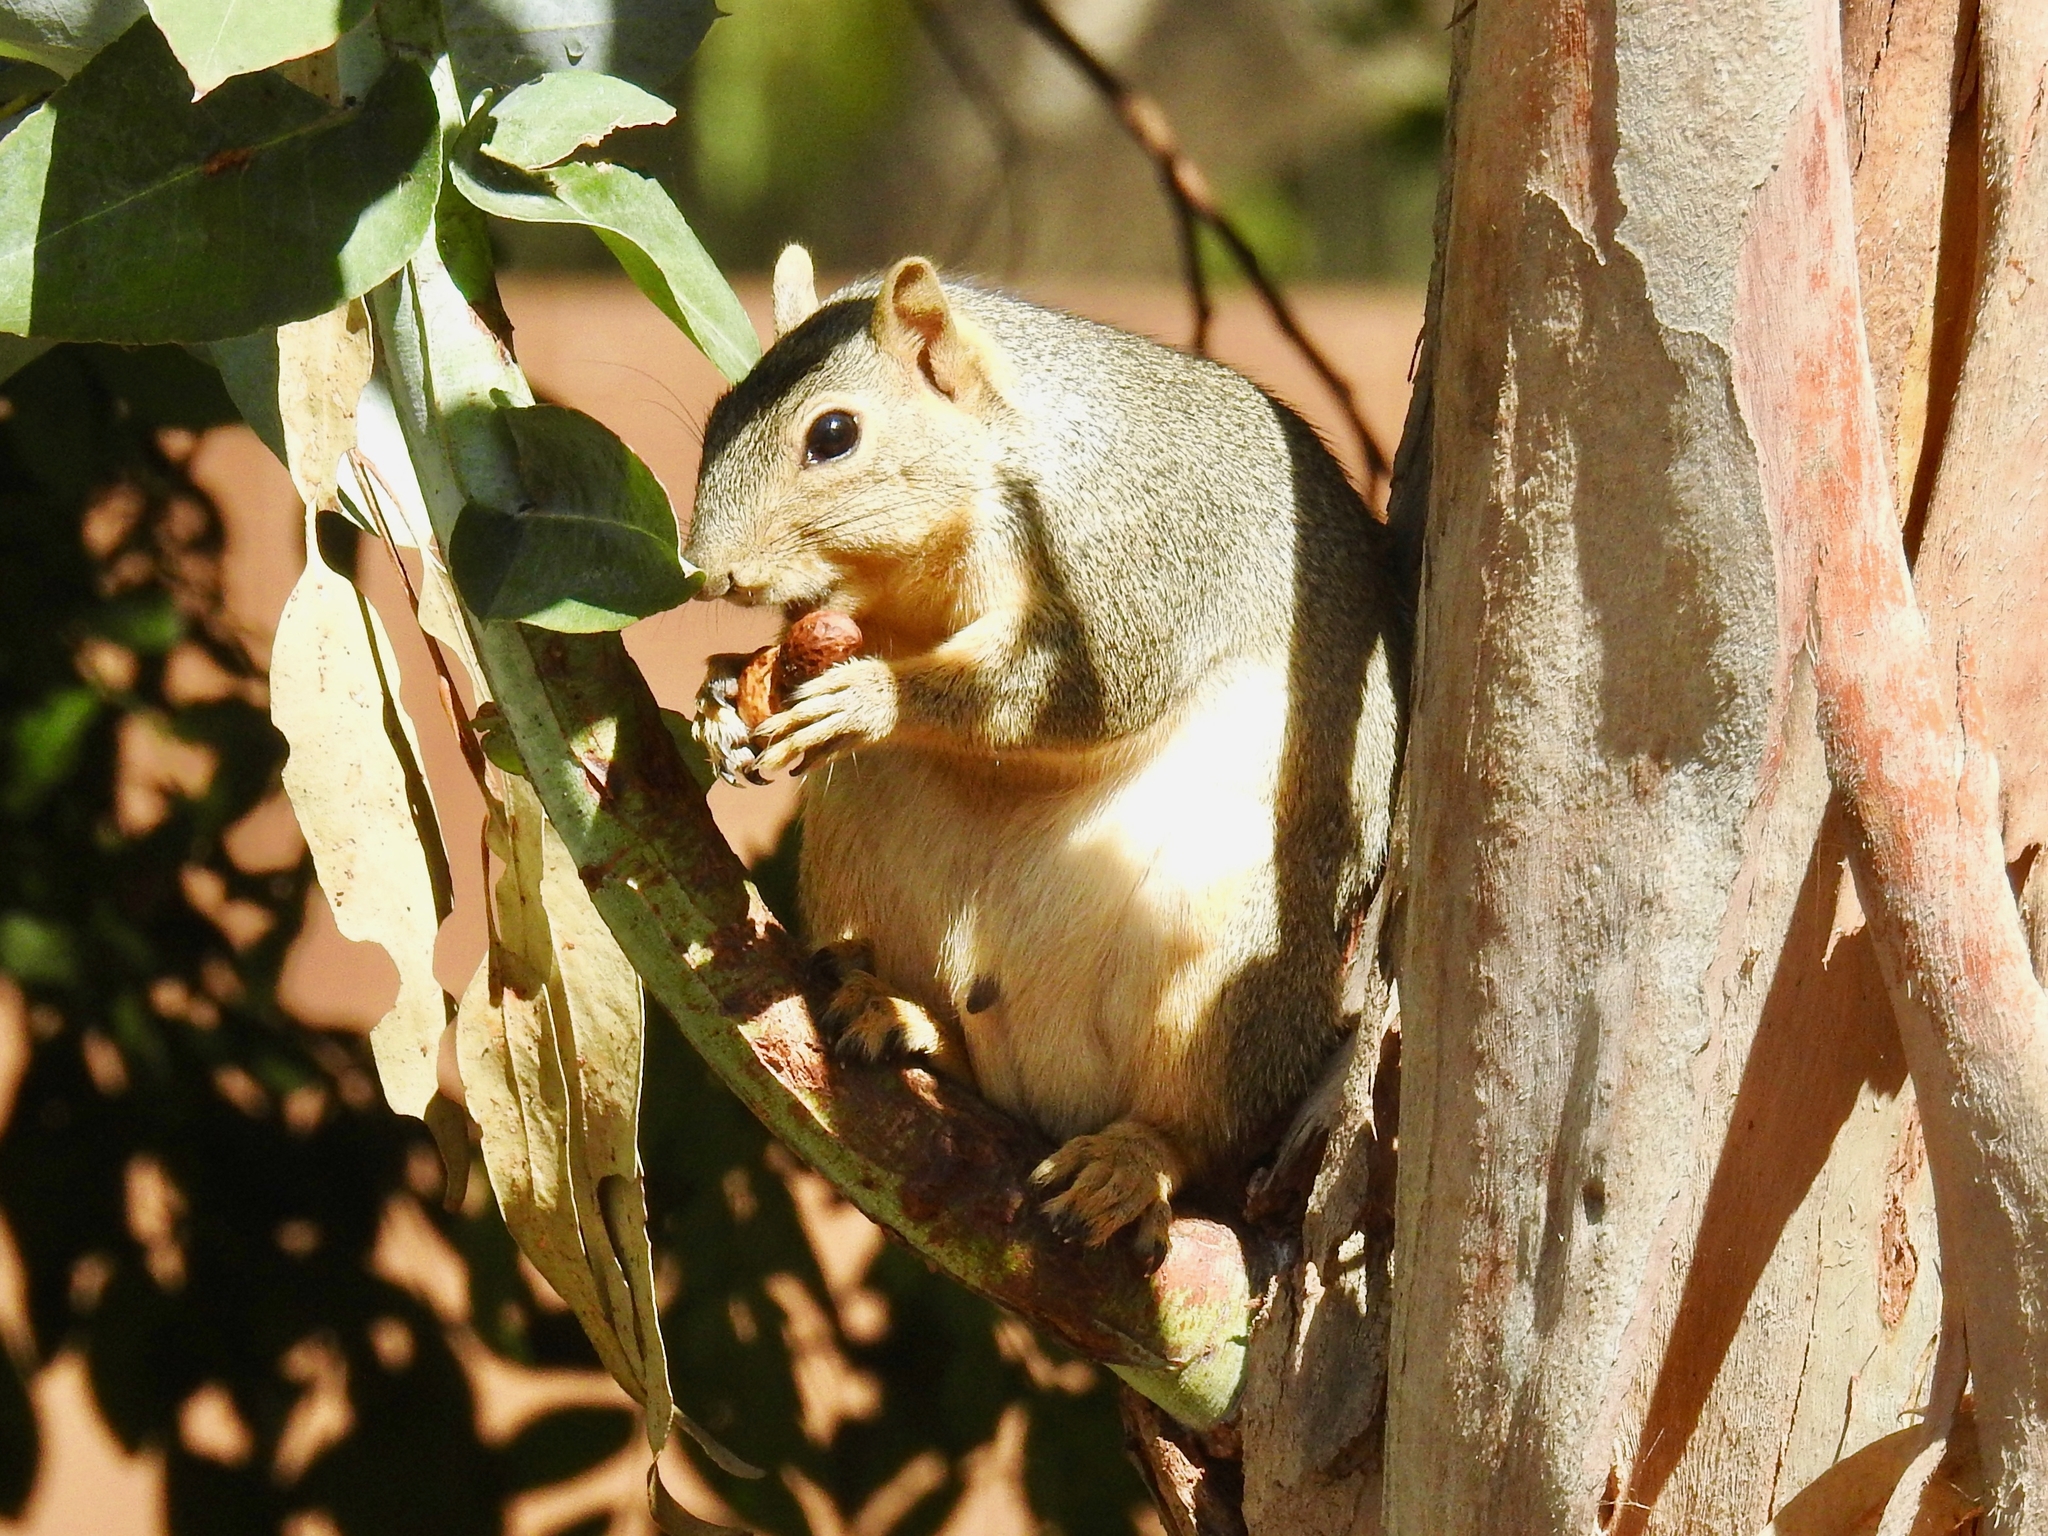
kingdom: Animalia
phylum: Chordata
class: Mammalia
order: Rodentia
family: Sciuridae
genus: Sciurus
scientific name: Sciurus niger
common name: Fox squirrel
